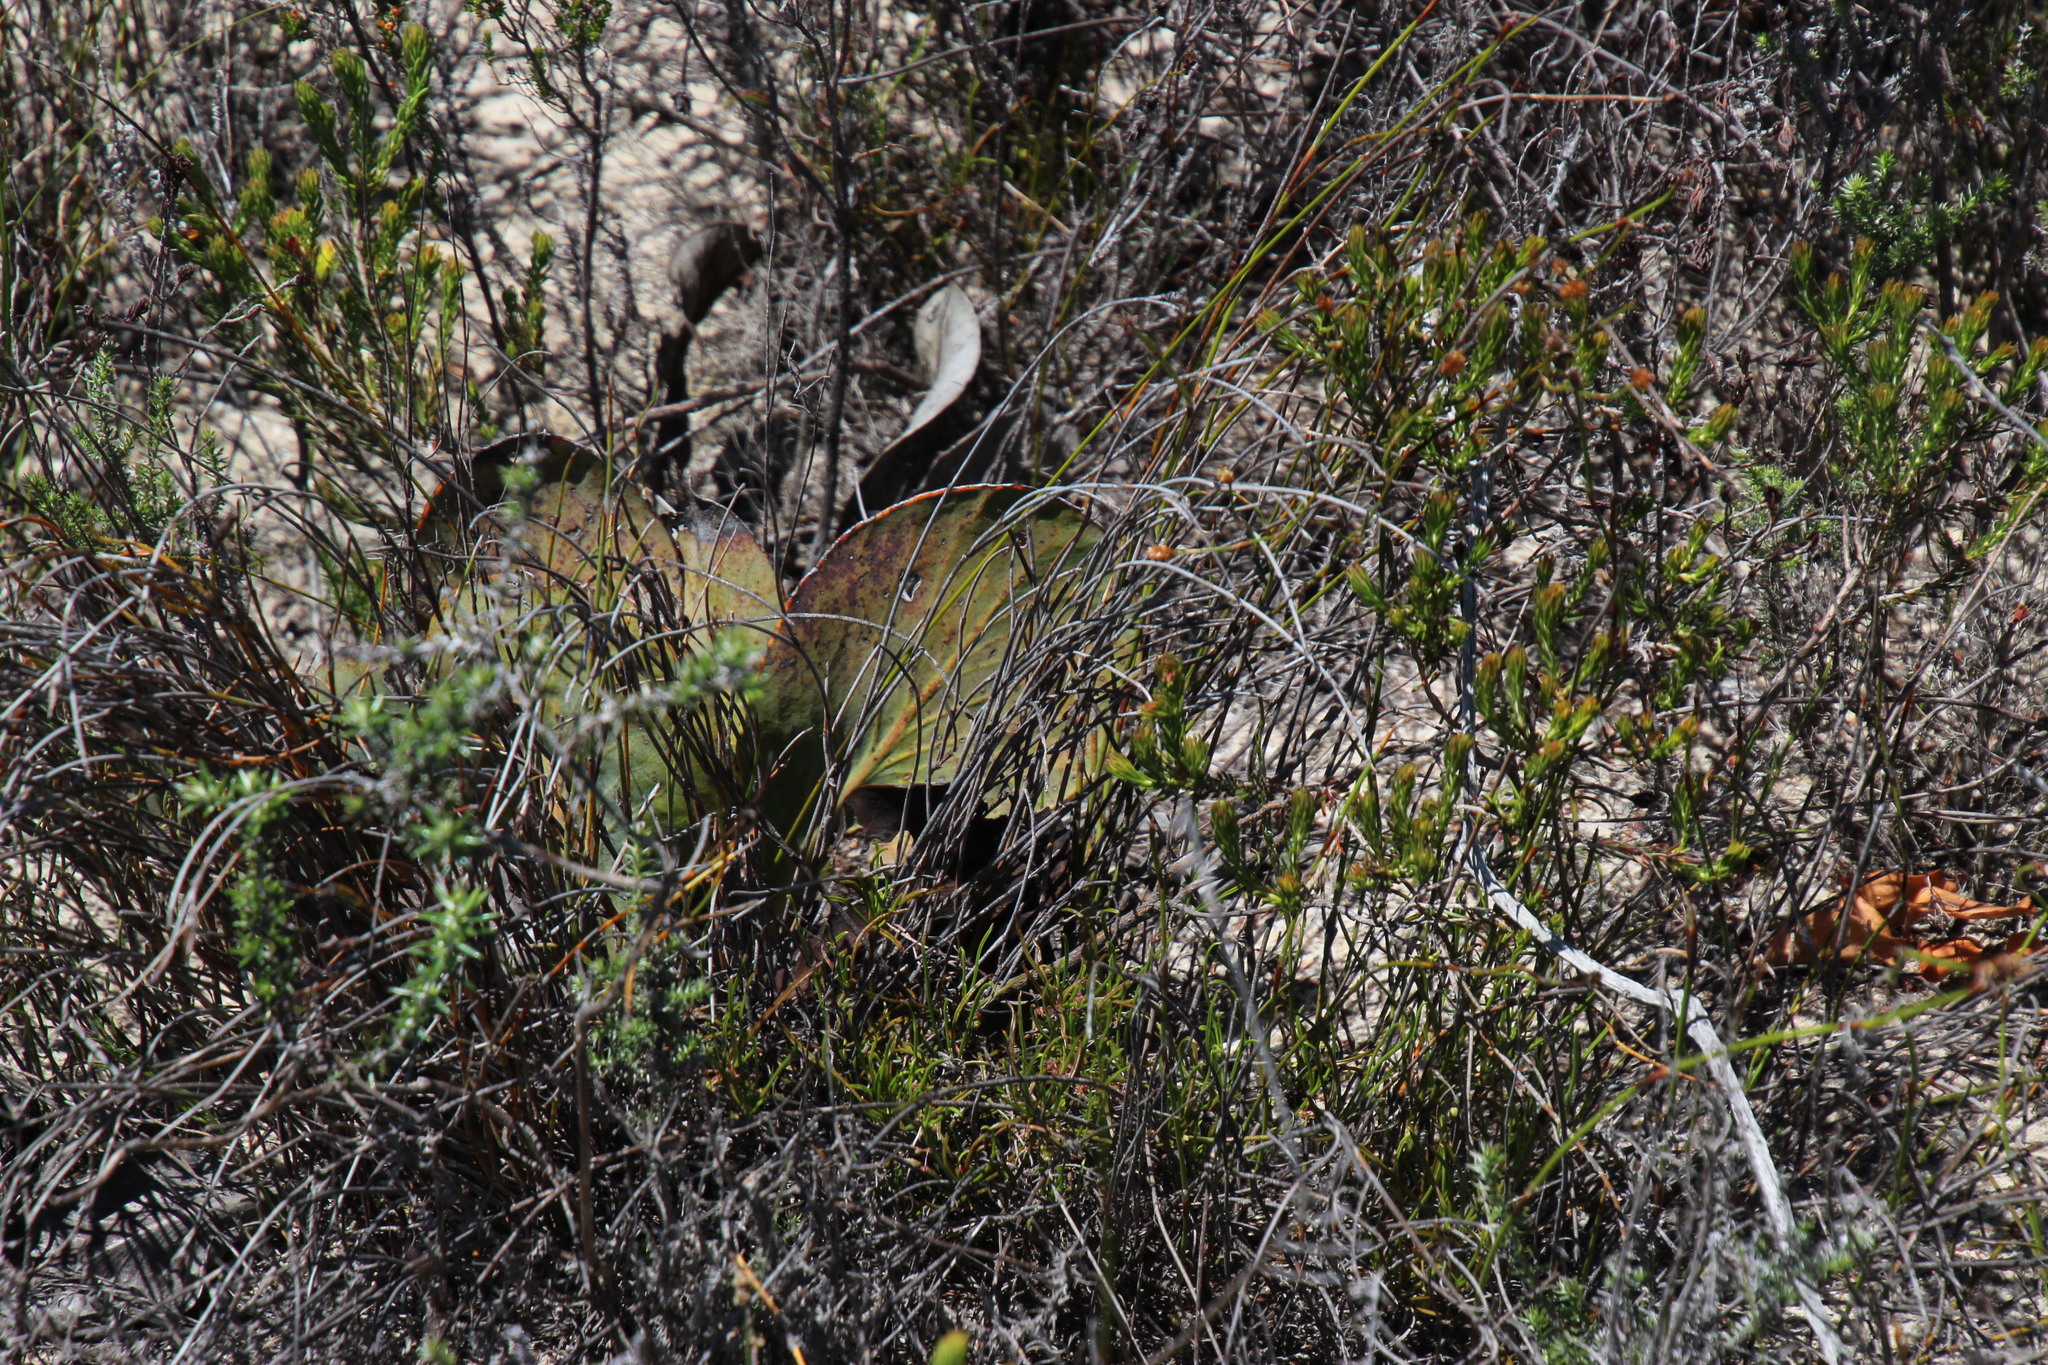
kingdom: Plantae
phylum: Tracheophyta
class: Magnoliopsida
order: Proteales
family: Proteaceae
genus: Protea
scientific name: Protea acaulos
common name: Common ground sugarbush
